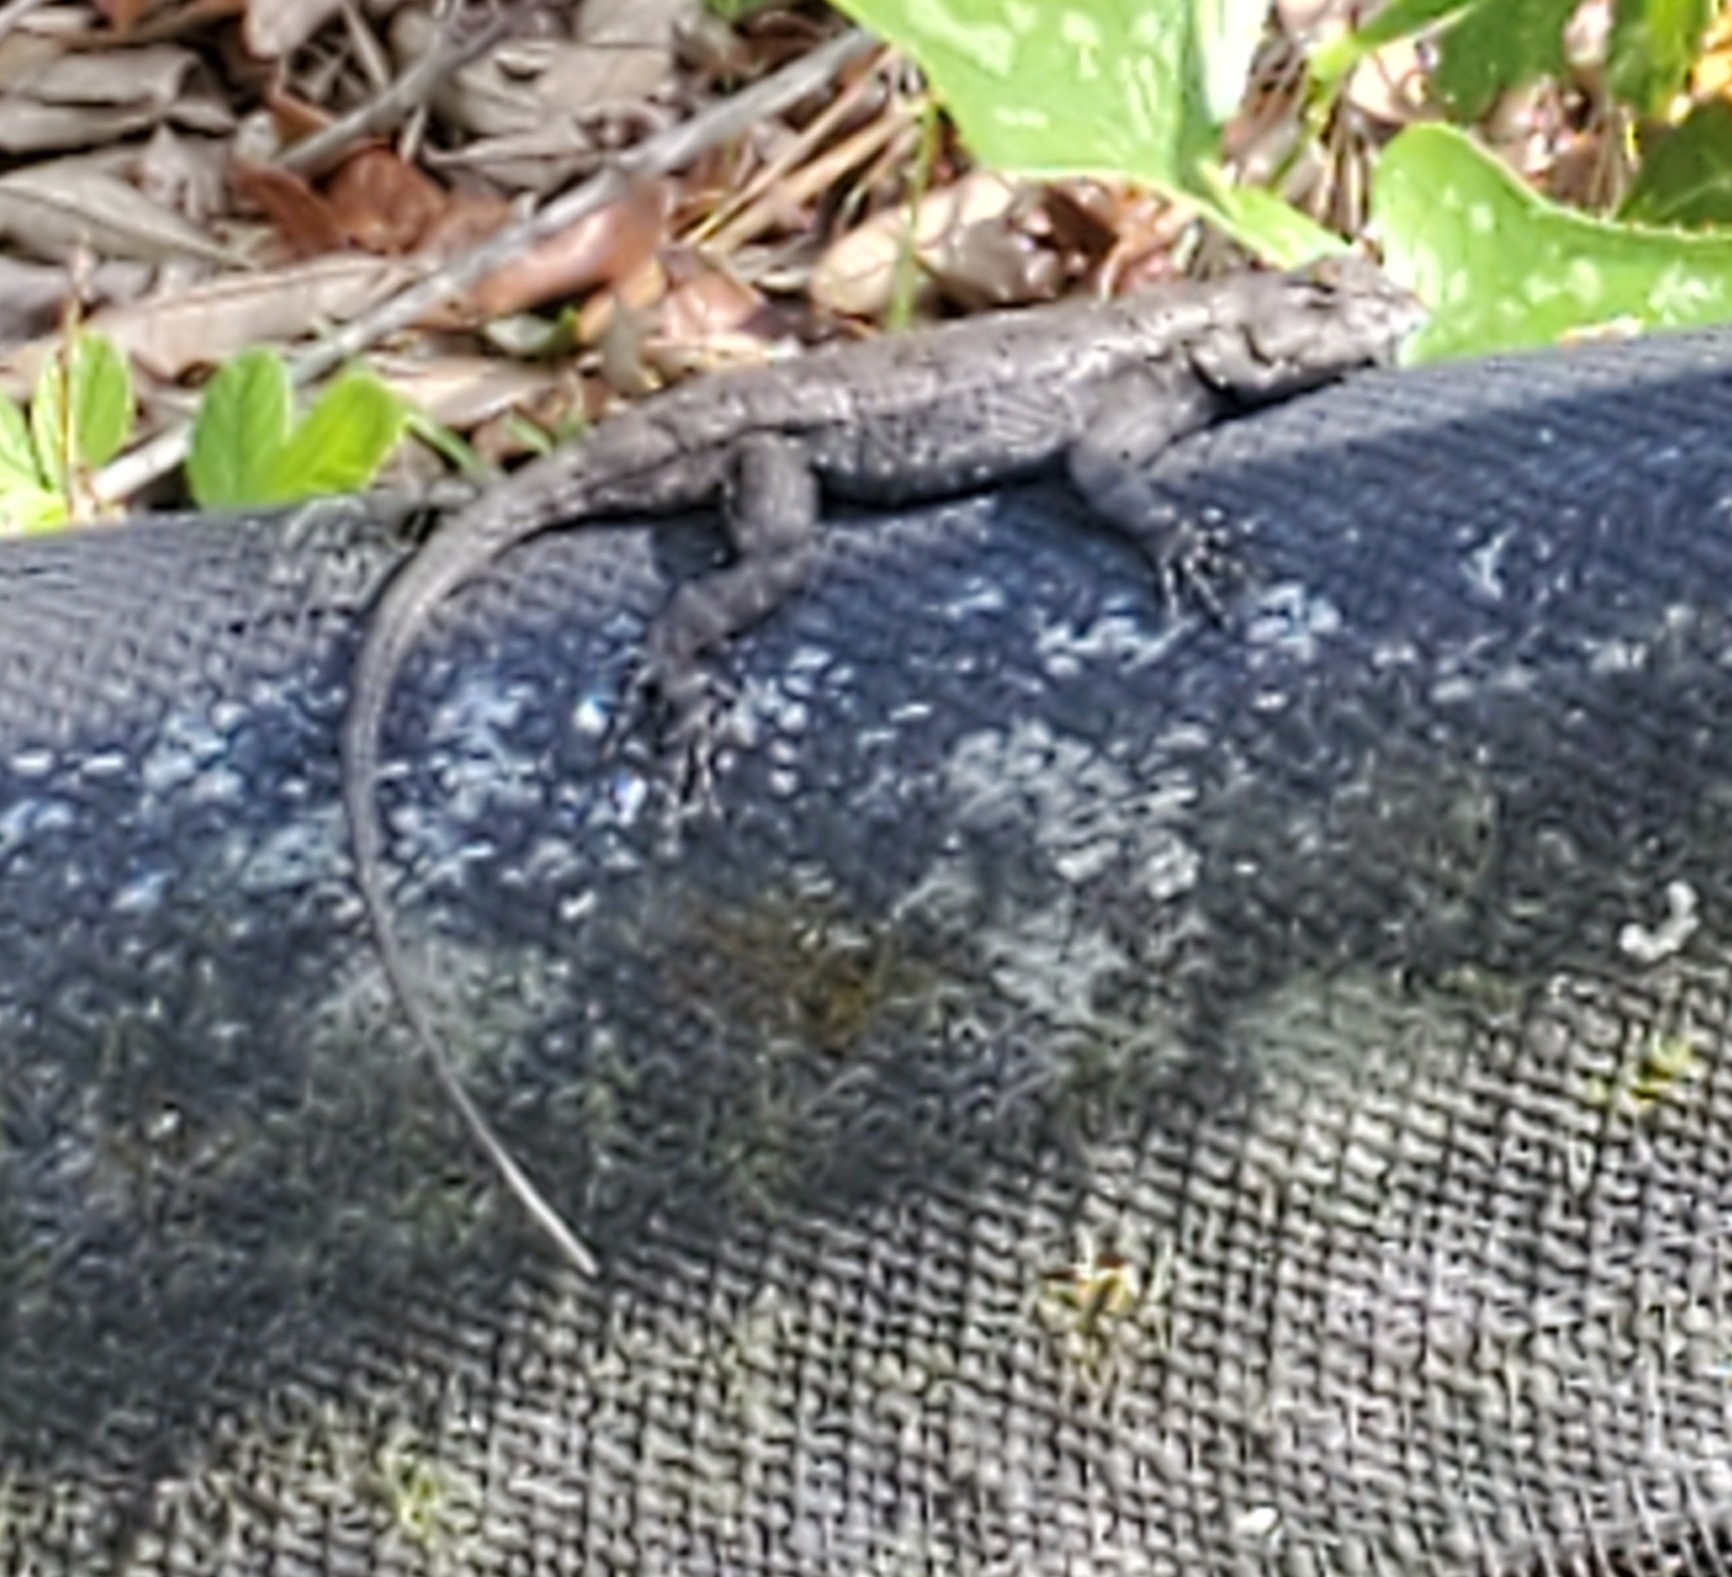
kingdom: Animalia
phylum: Chordata
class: Squamata
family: Phrynosomatidae
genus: Sceloporus
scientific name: Sceloporus undulatus
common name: Eastern fence lizard
